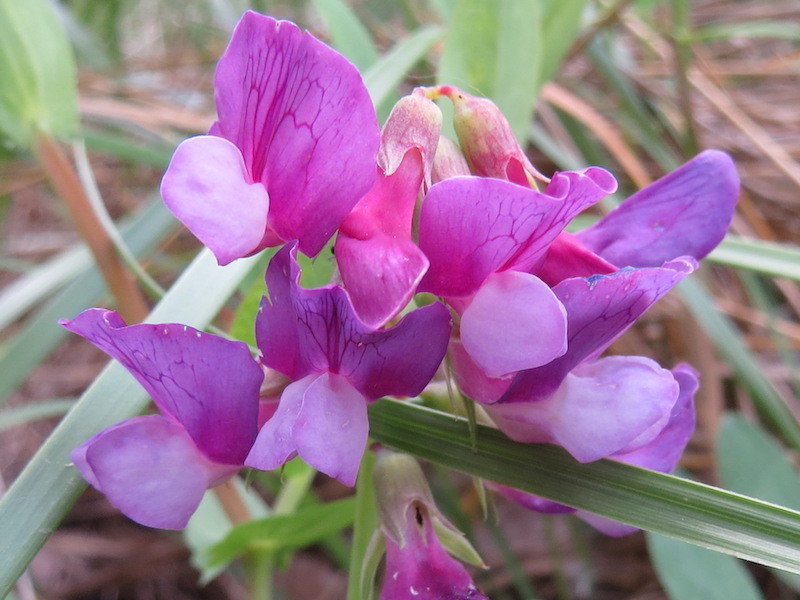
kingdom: Plantae
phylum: Tracheophyta
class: Magnoliopsida
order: Fabales
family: Fabaceae
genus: Lathyrus
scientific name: Lathyrus japonicus
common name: Sea pea
